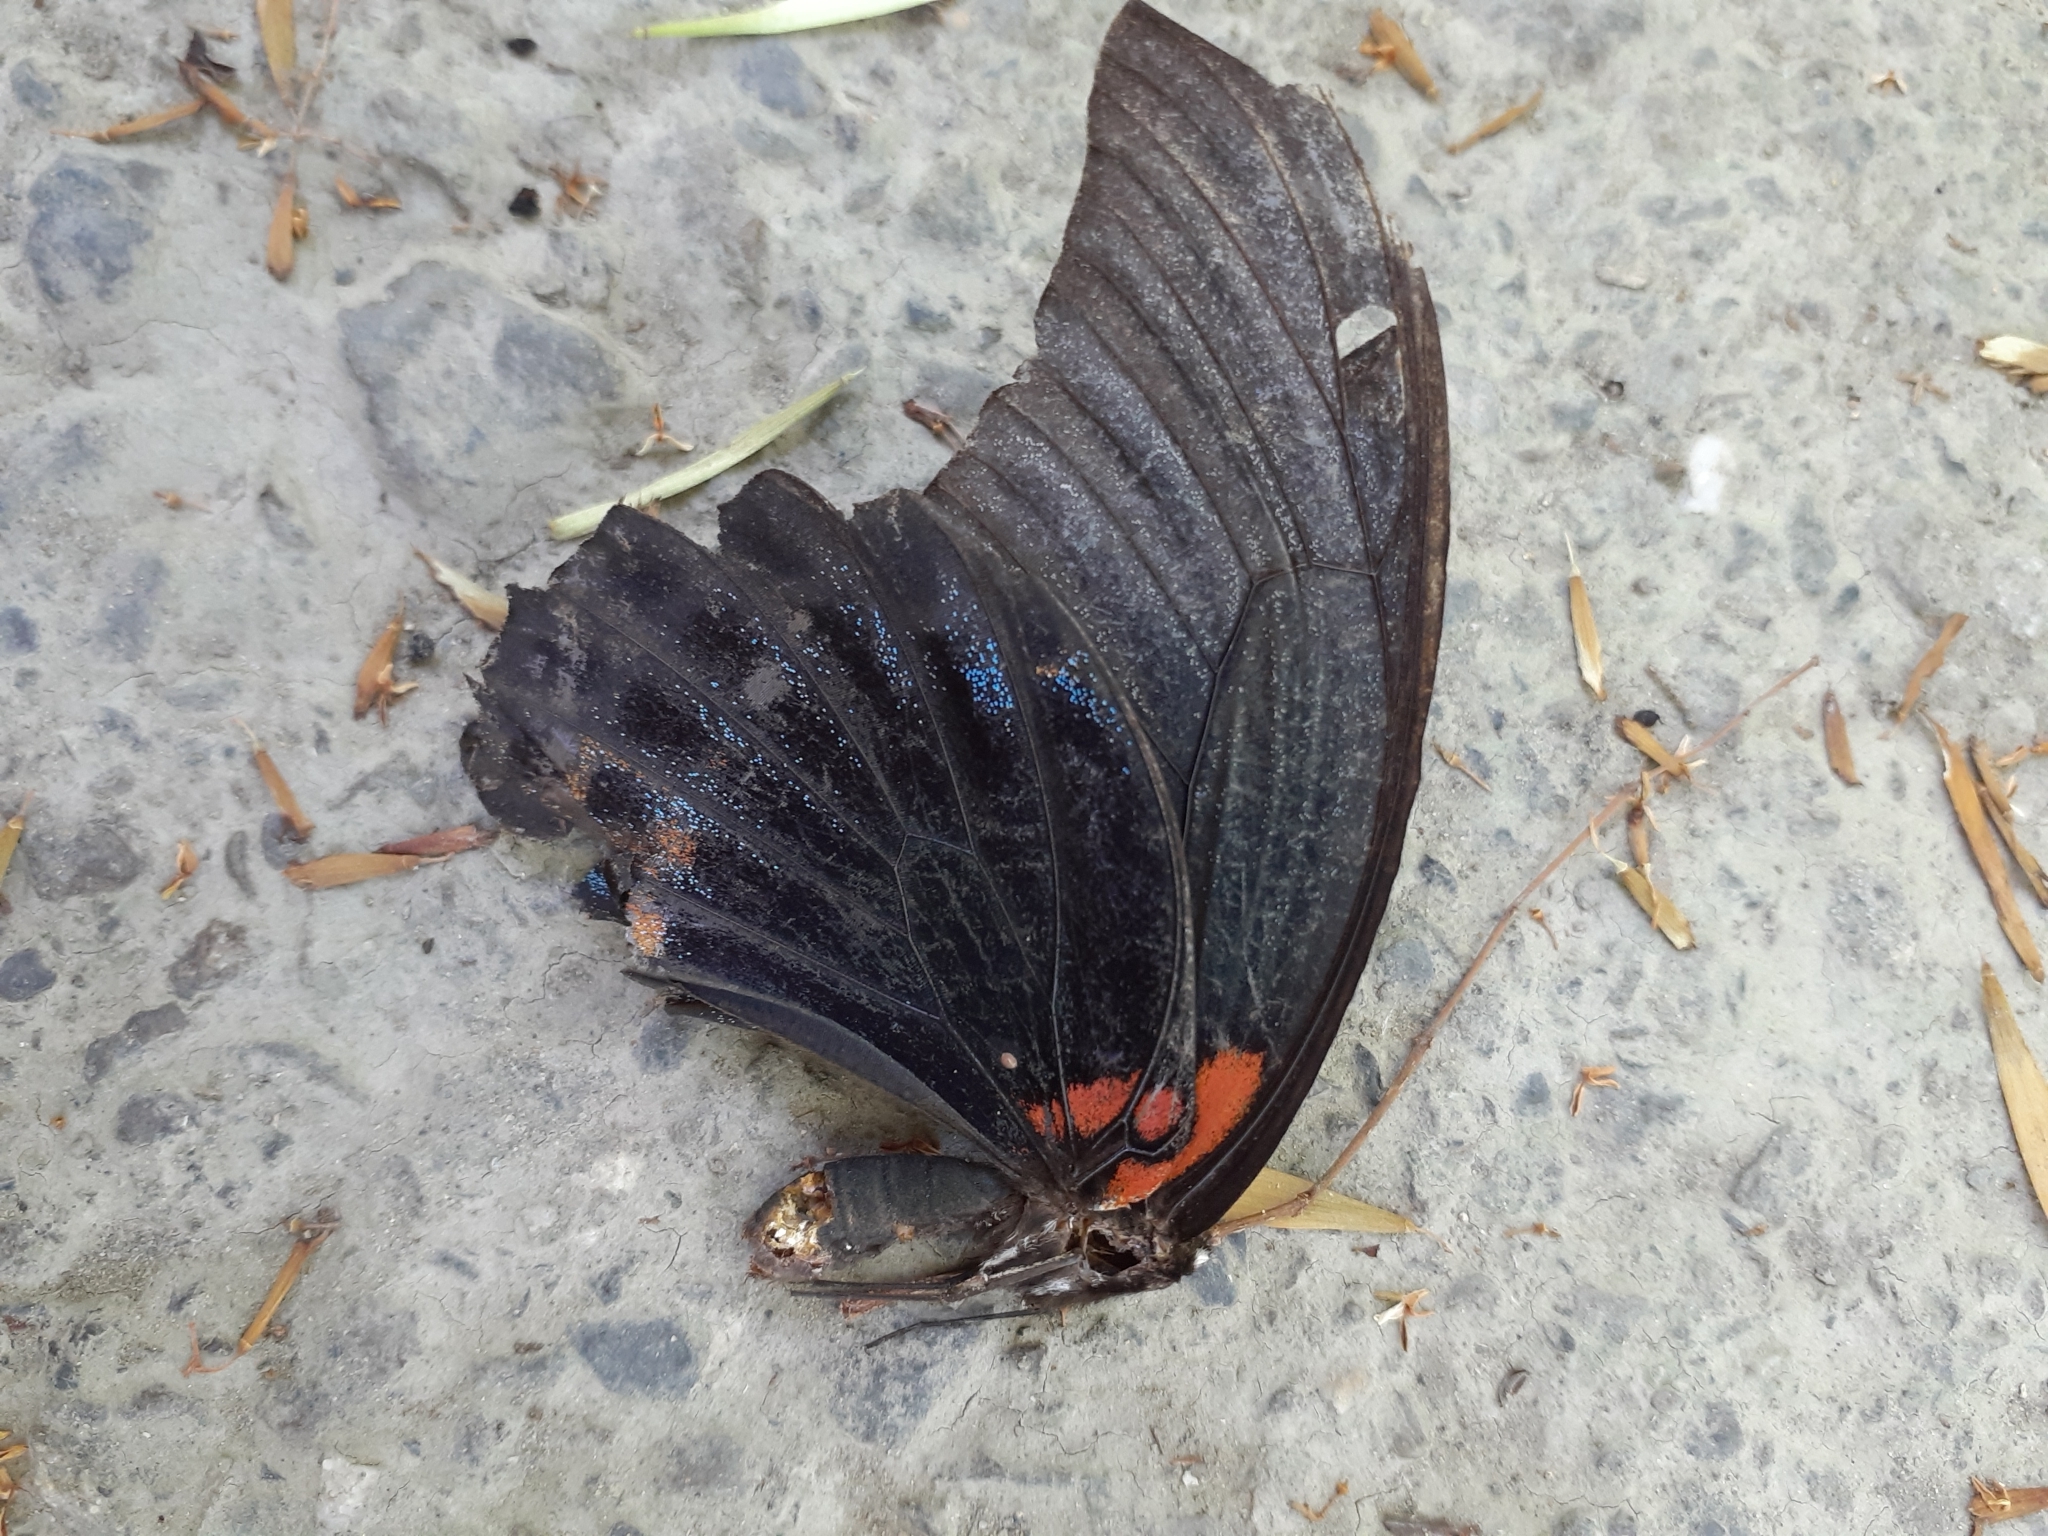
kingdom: Animalia
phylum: Arthropoda
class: Insecta
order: Lepidoptera
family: Papilionidae
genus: Papilio
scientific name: Papilio memnon
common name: Great mormon
